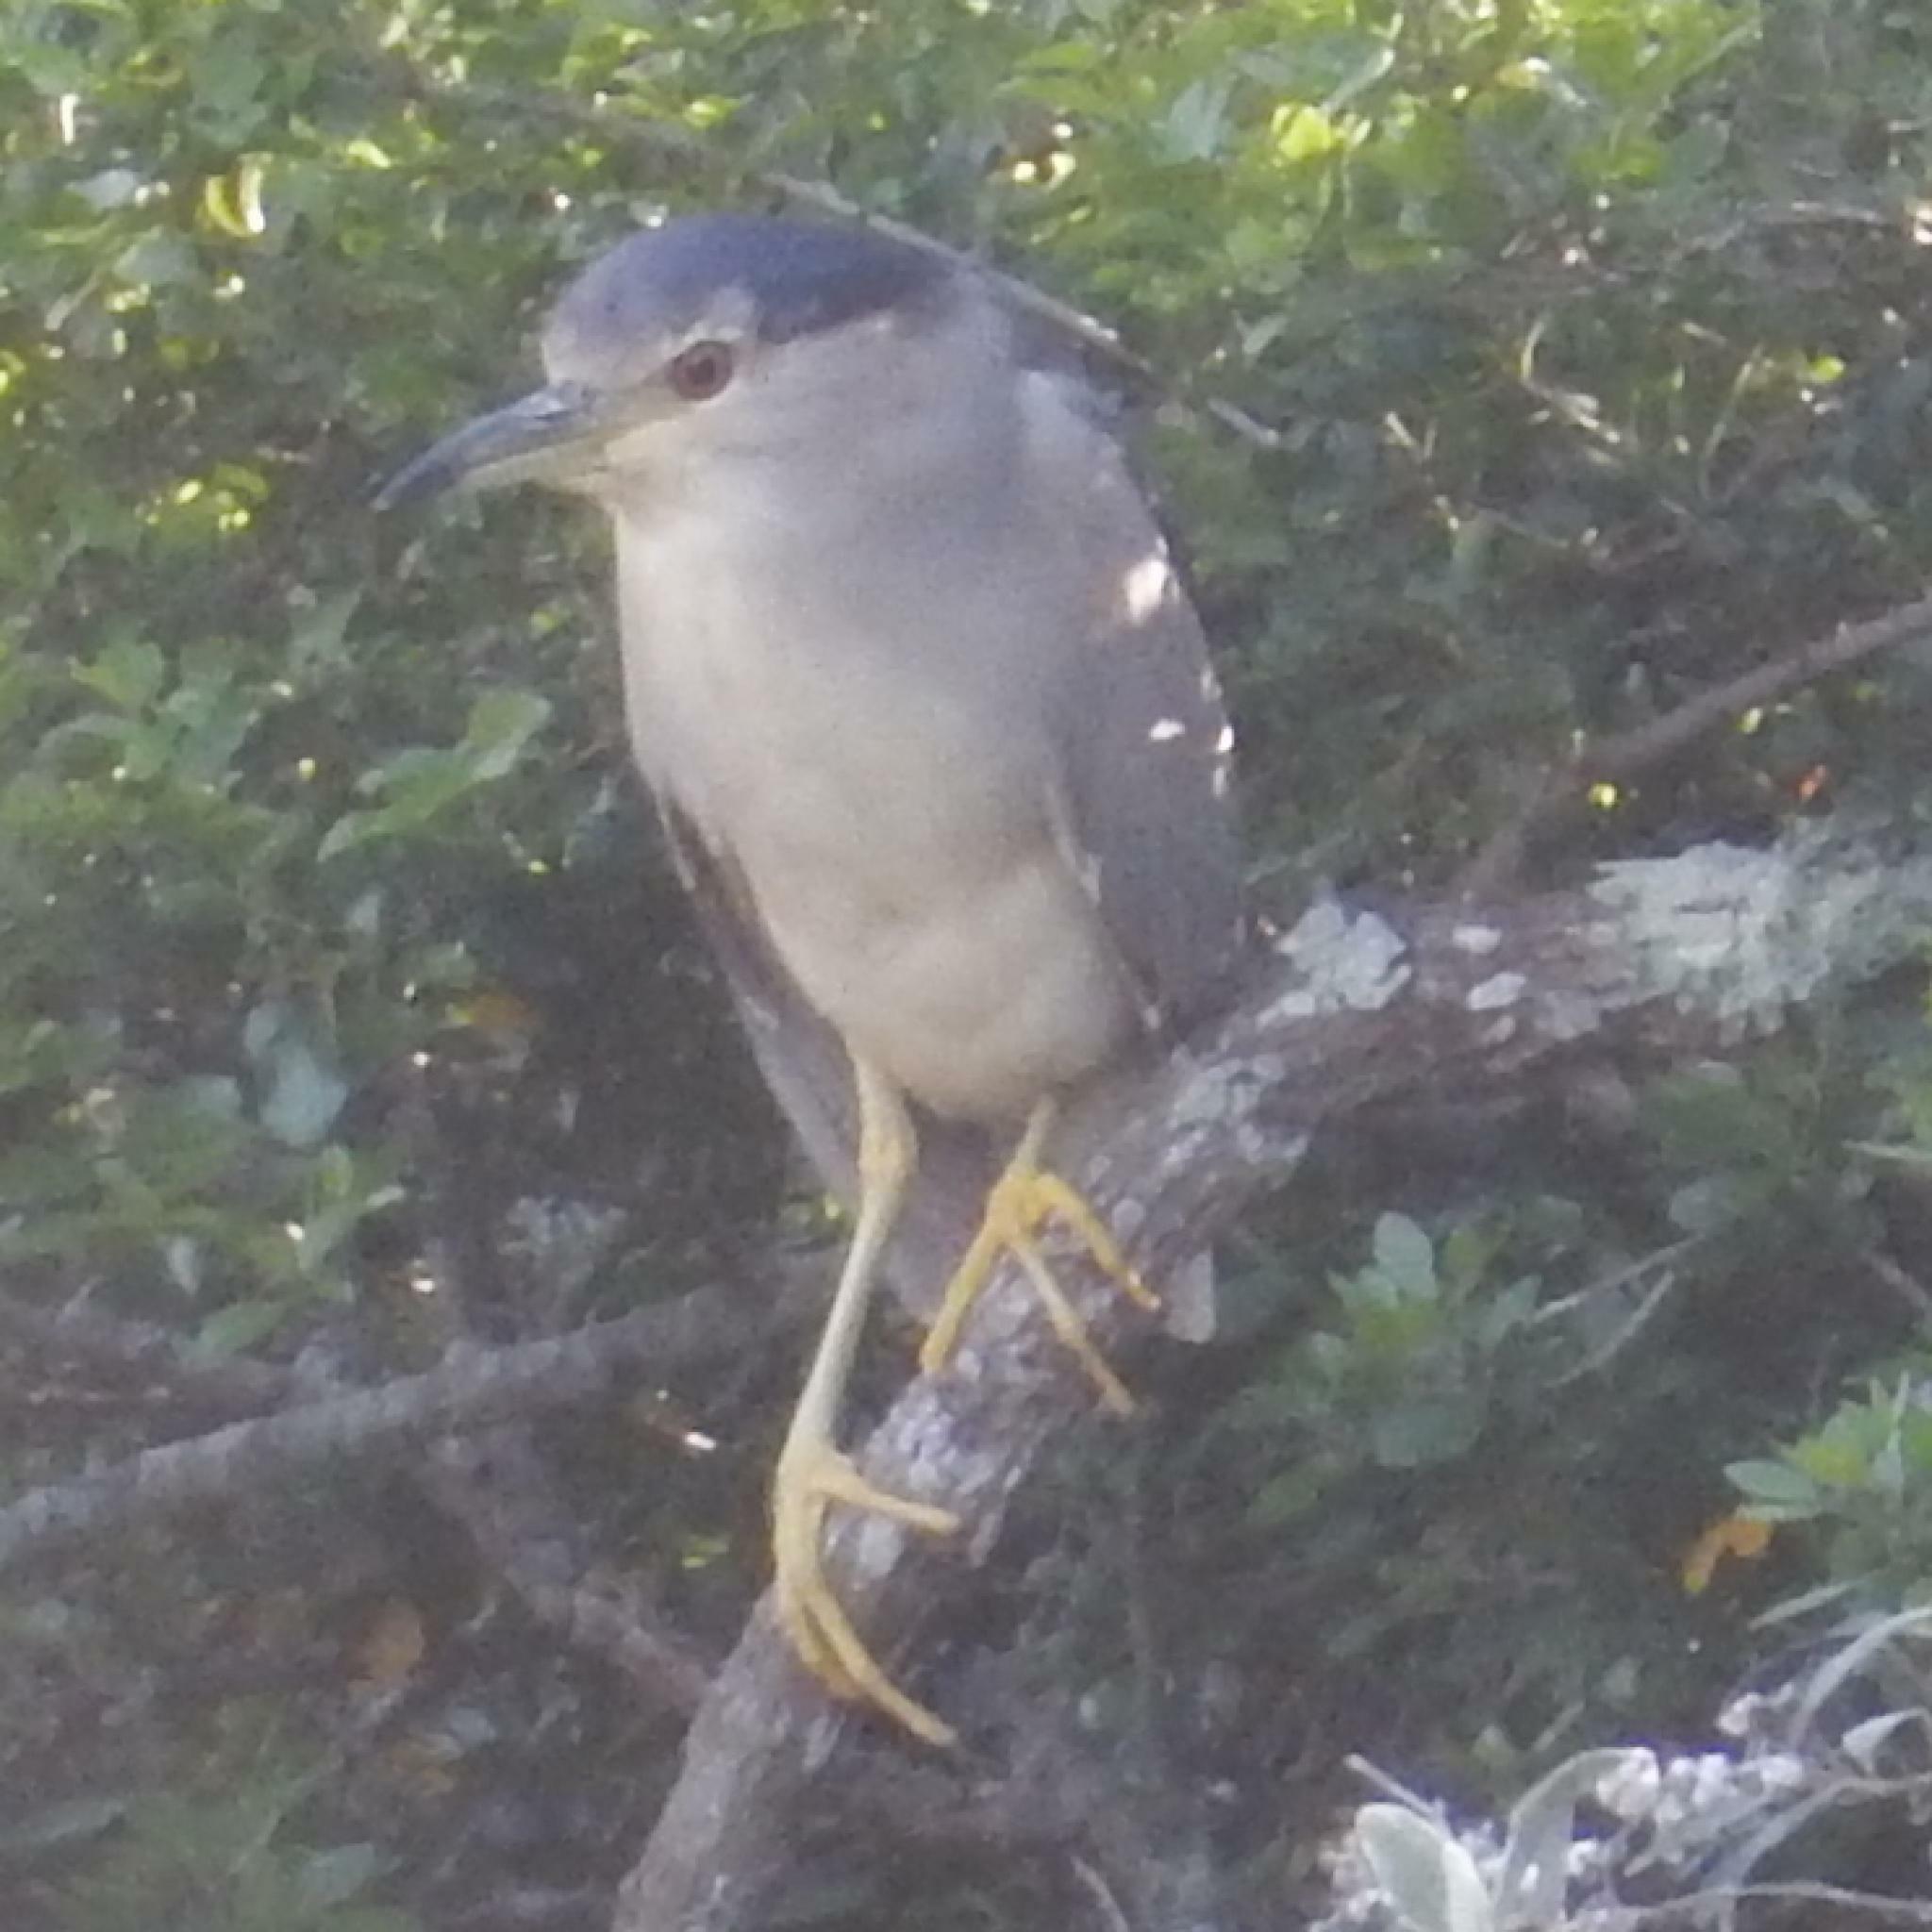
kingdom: Animalia
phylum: Chordata
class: Aves
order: Pelecaniformes
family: Ardeidae
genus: Nycticorax
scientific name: Nycticorax nycticorax
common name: Black-crowned night heron
